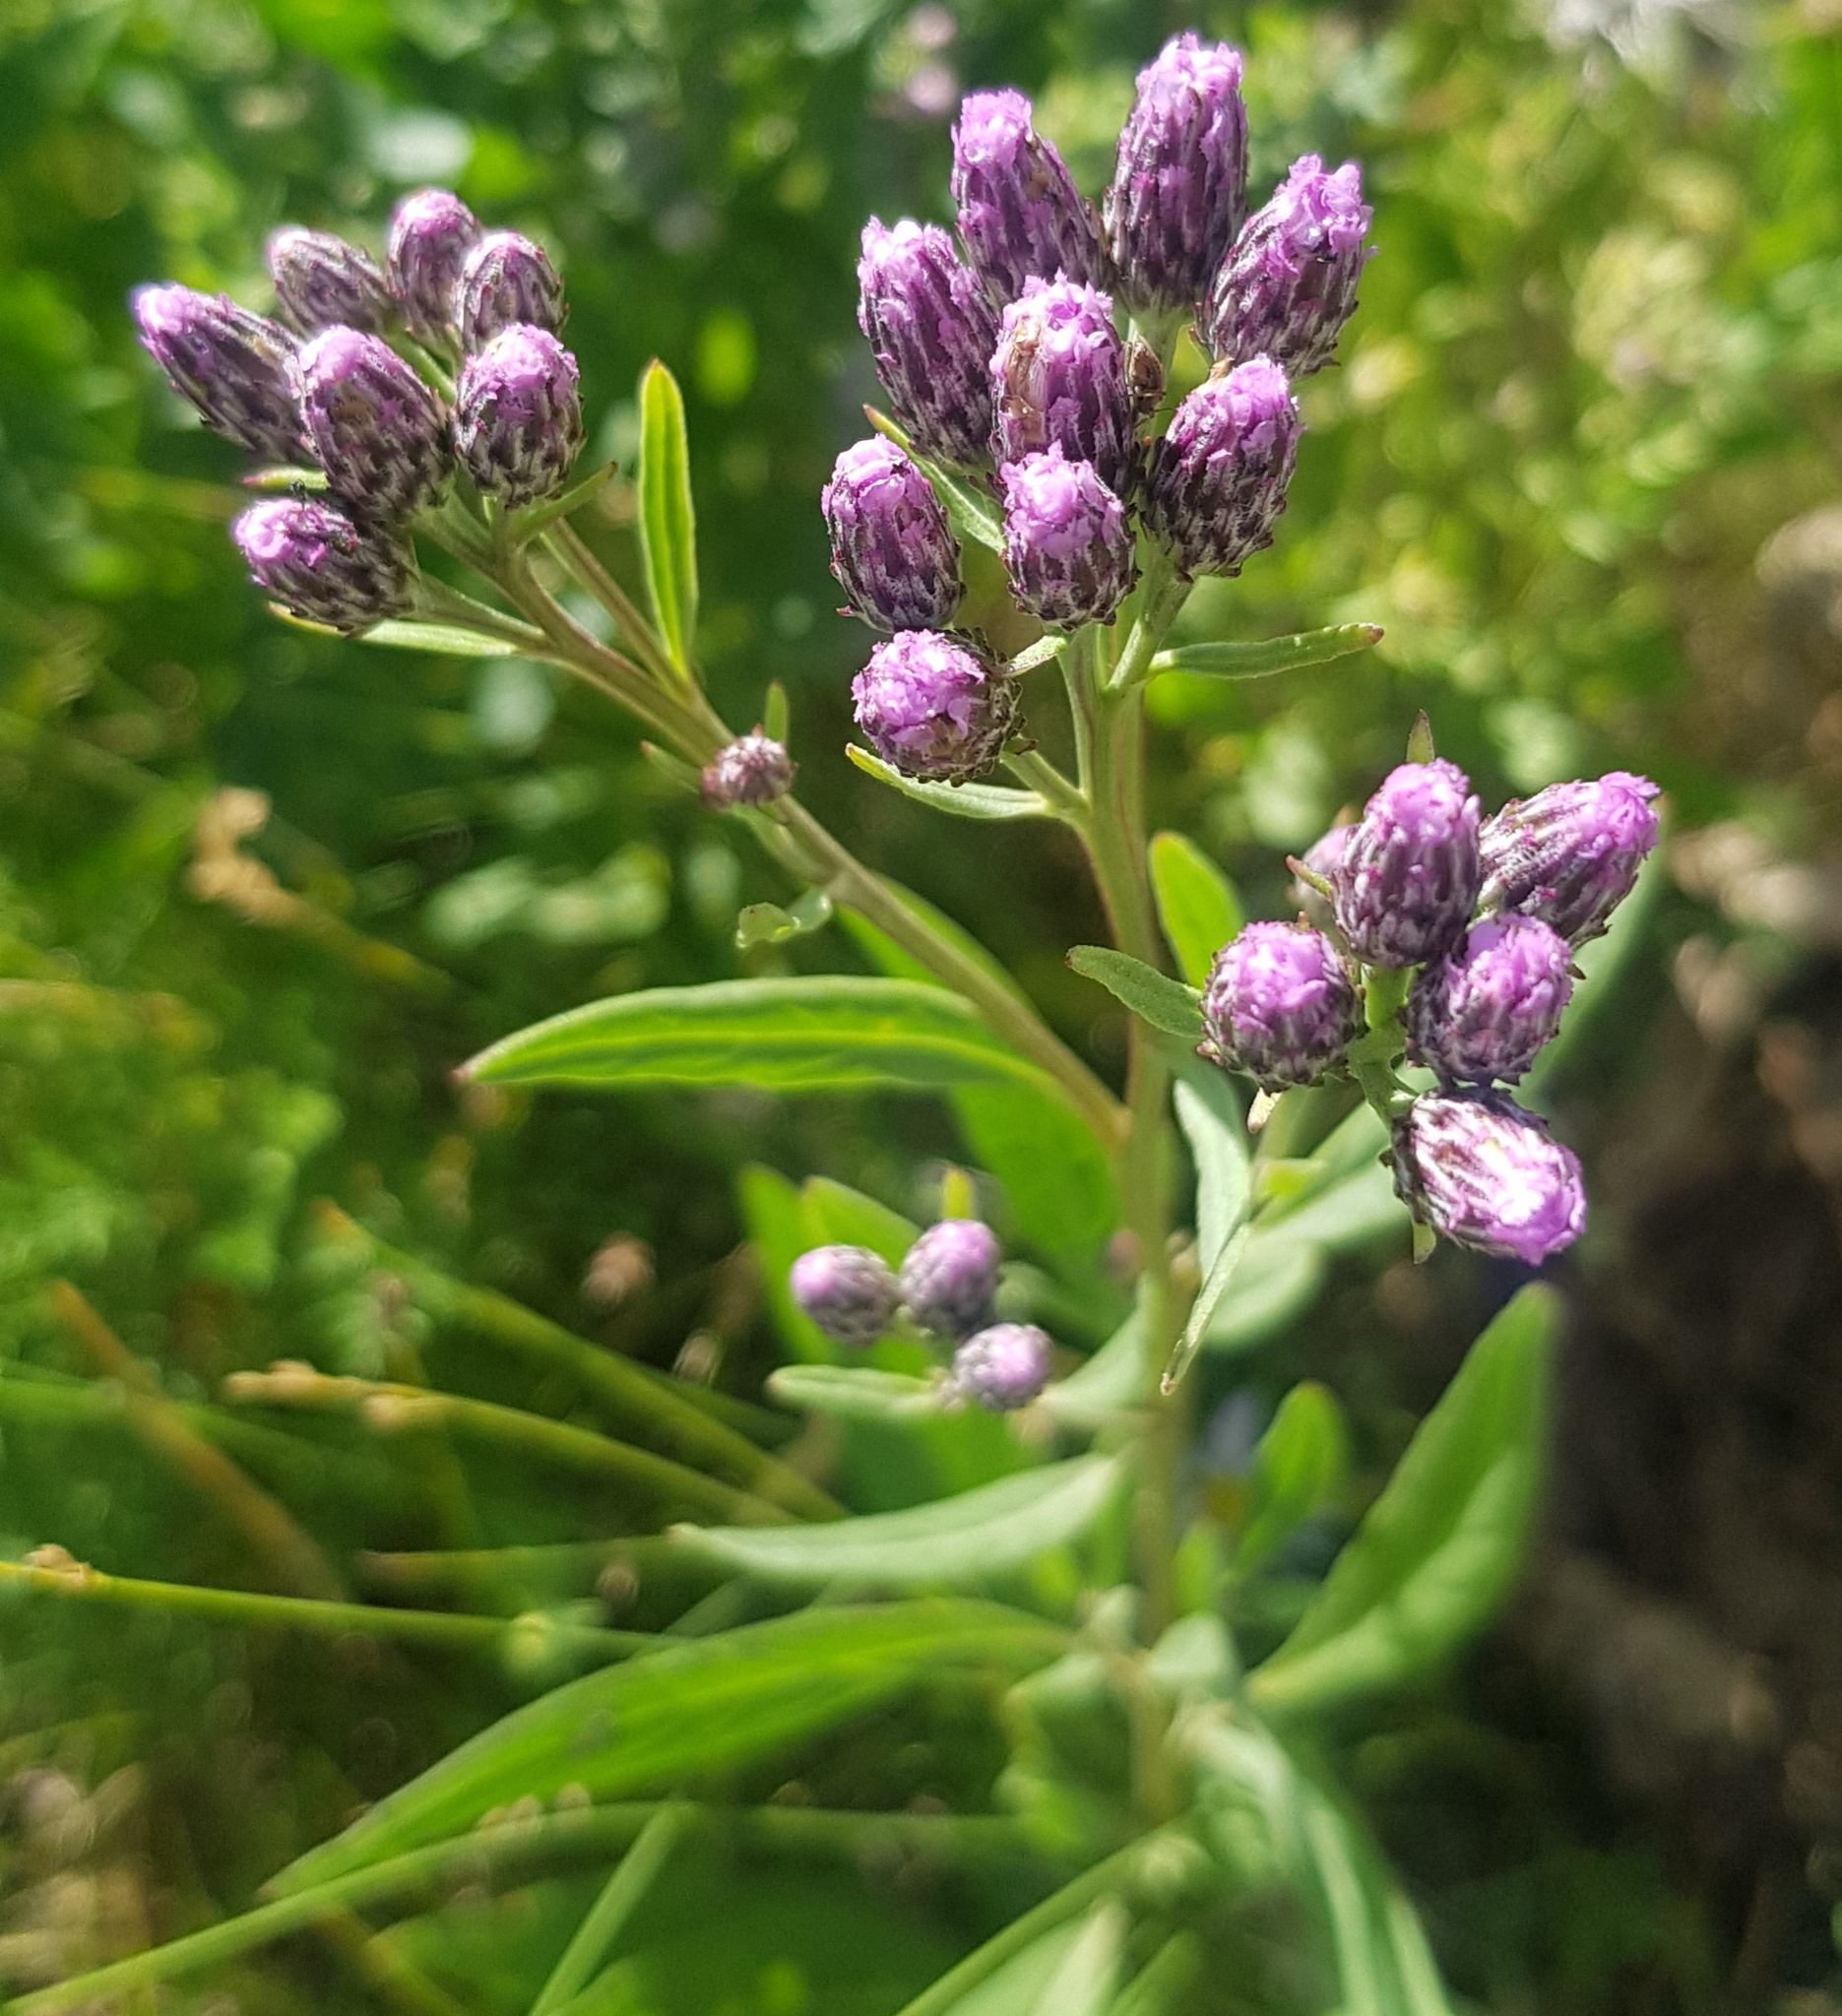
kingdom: Plantae
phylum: Tracheophyta
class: Magnoliopsida
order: Asterales
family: Asteraceae
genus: Saussurea
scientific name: Saussurea salicifolia
